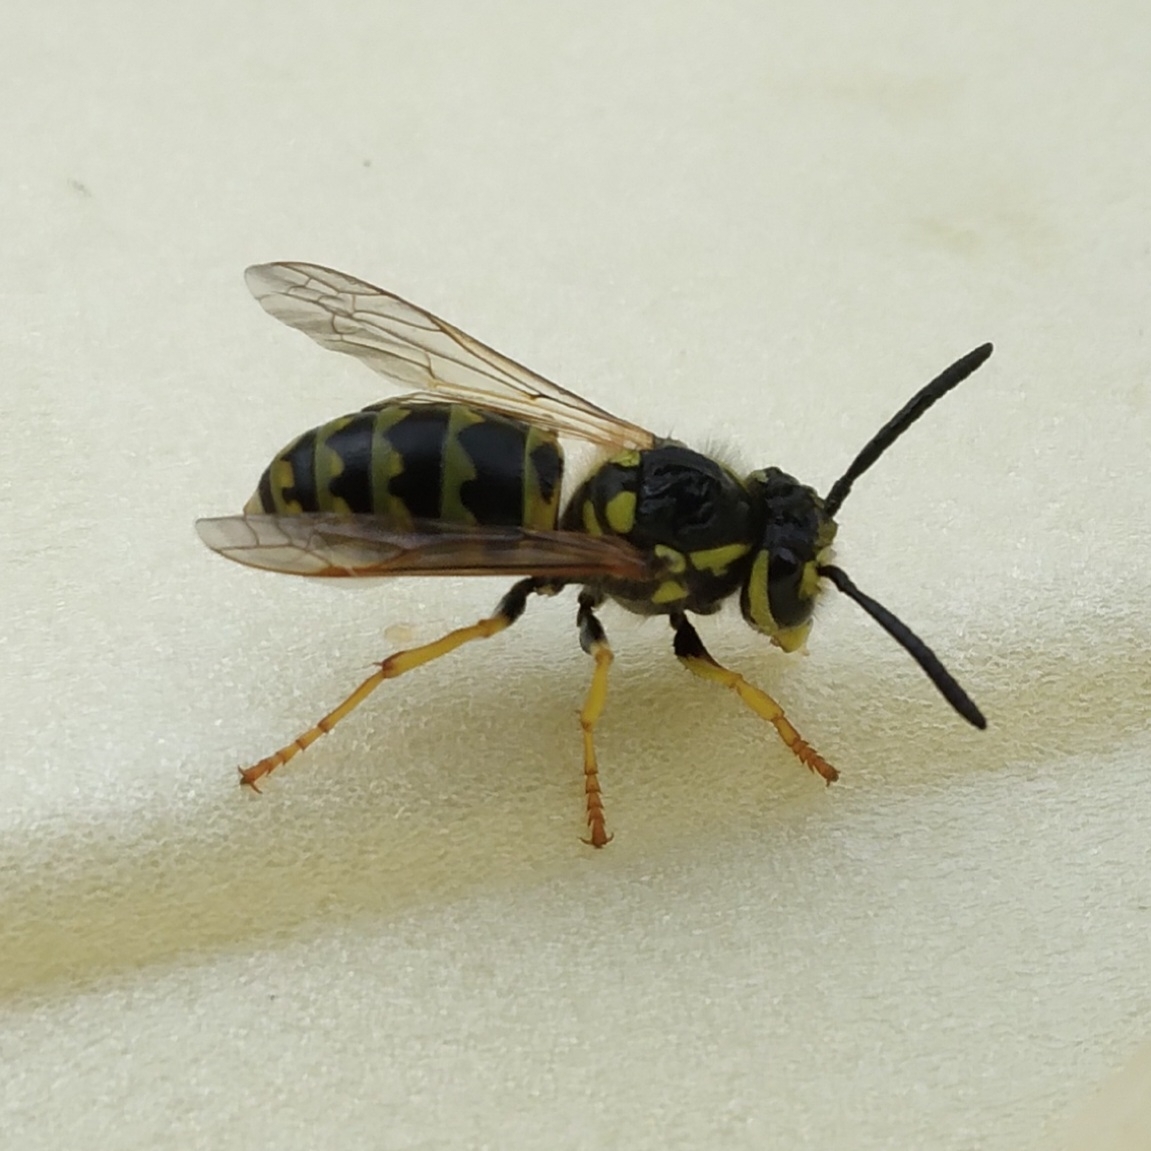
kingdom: Animalia
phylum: Arthropoda
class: Insecta
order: Hymenoptera
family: Vespidae
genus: Vespula
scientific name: Vespula germanica
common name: German wasp
